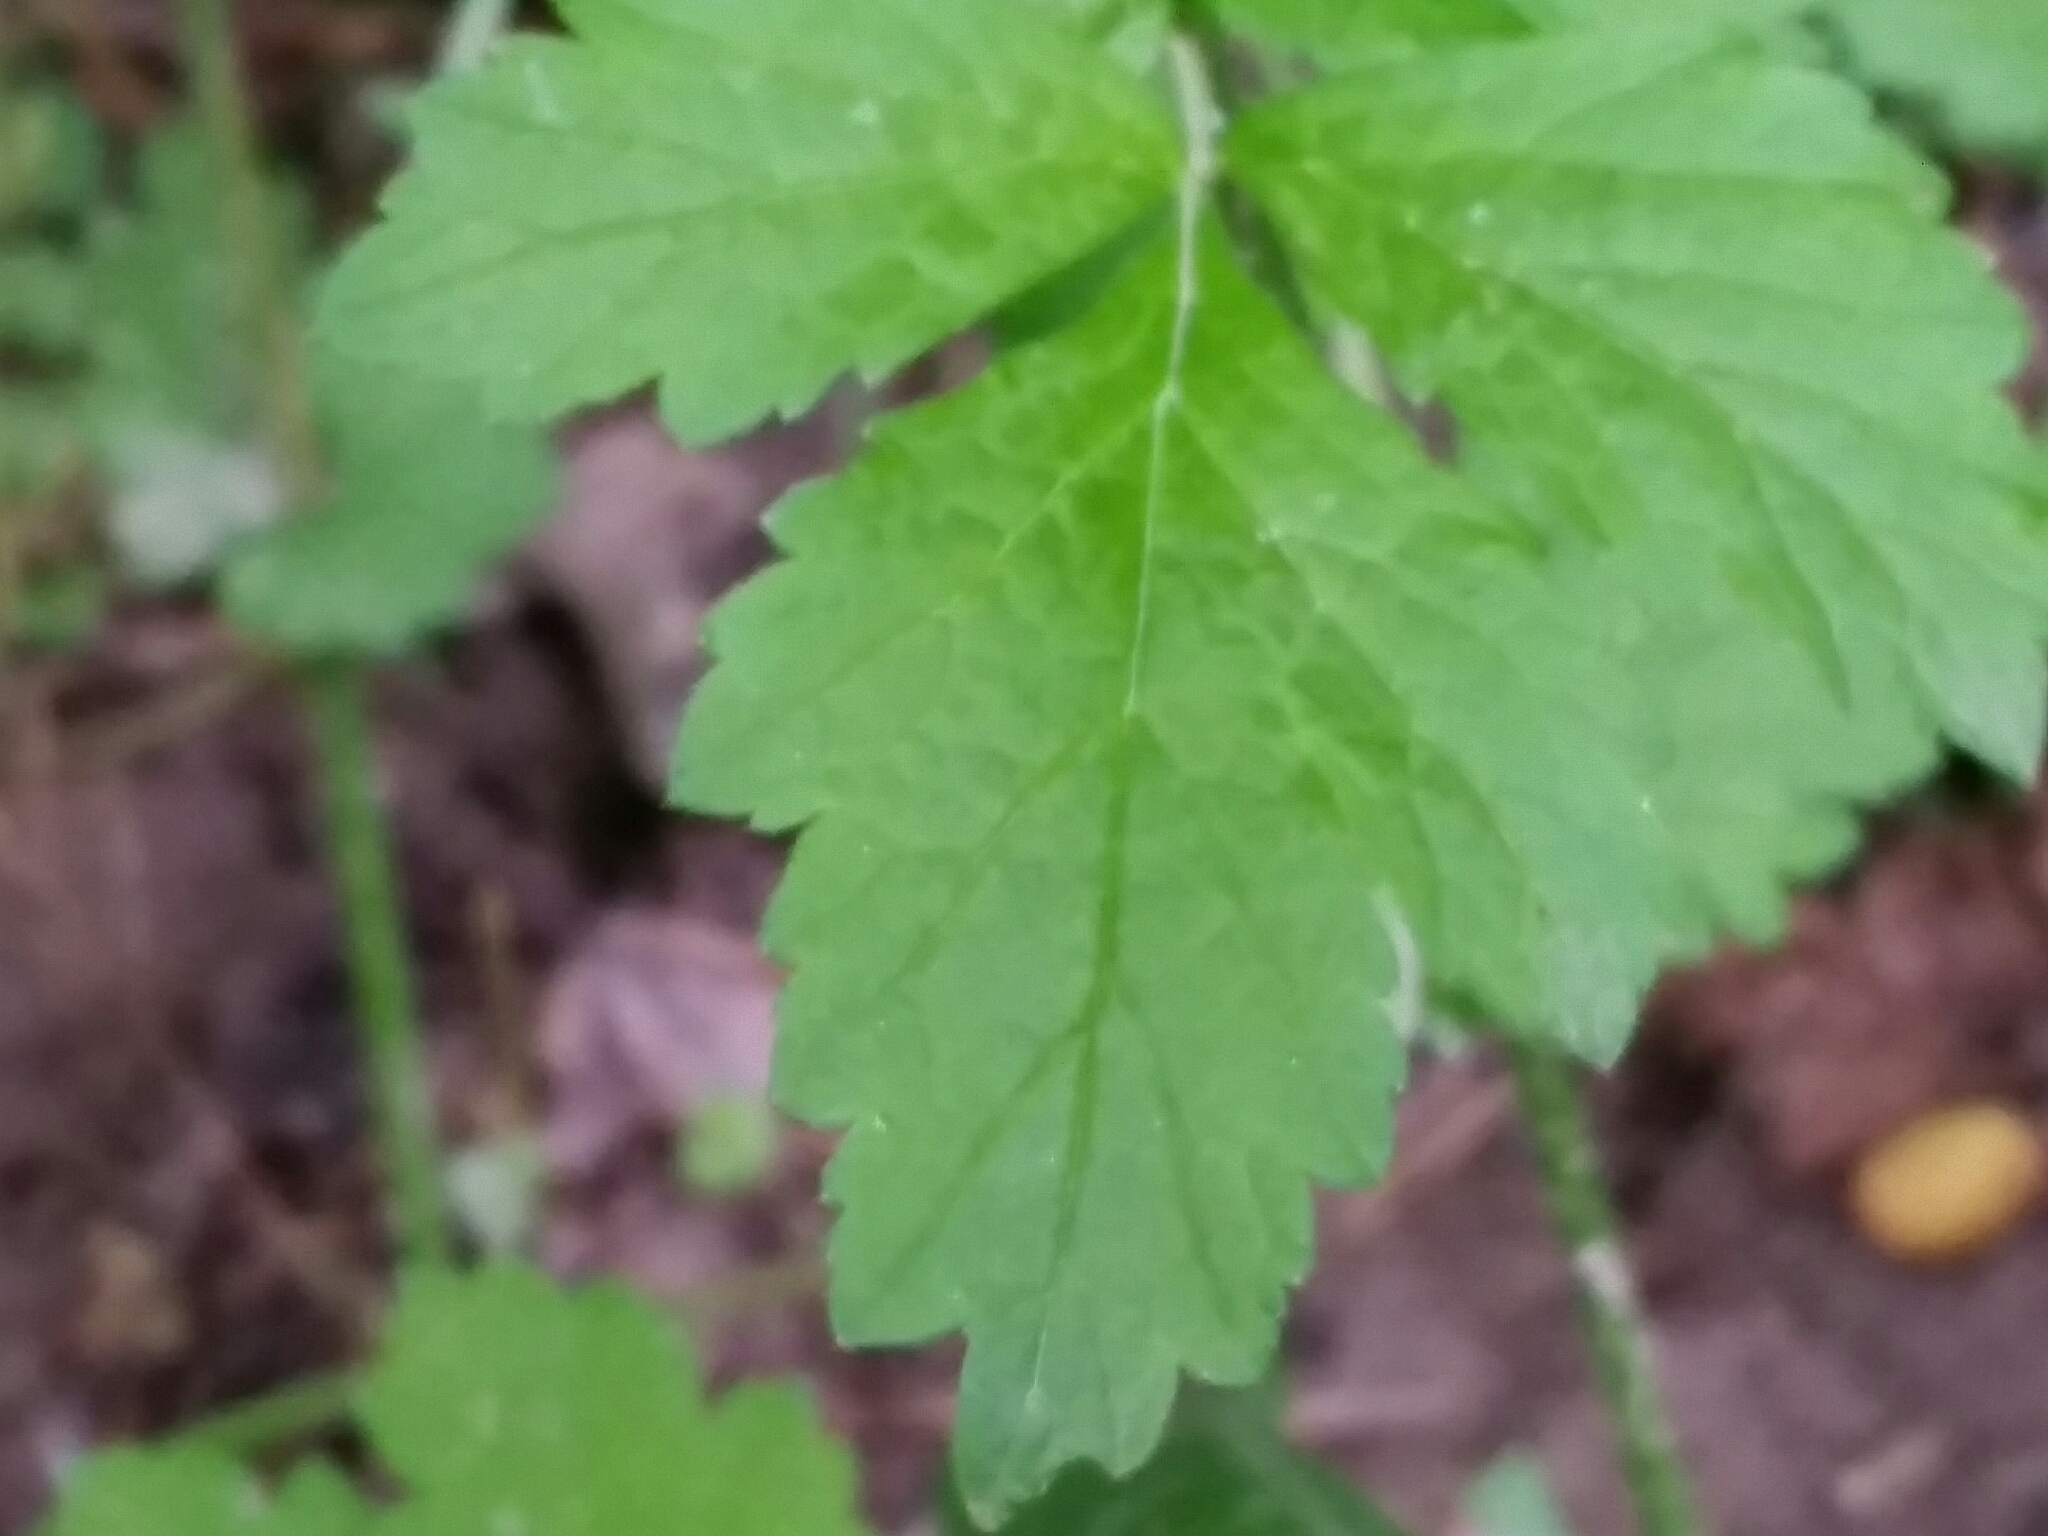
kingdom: Plantae
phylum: Tracheophyta
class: Magnoliopsida
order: Rosales
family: Rosaceae
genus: Geum
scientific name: Geum urbanum
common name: Wood avens
